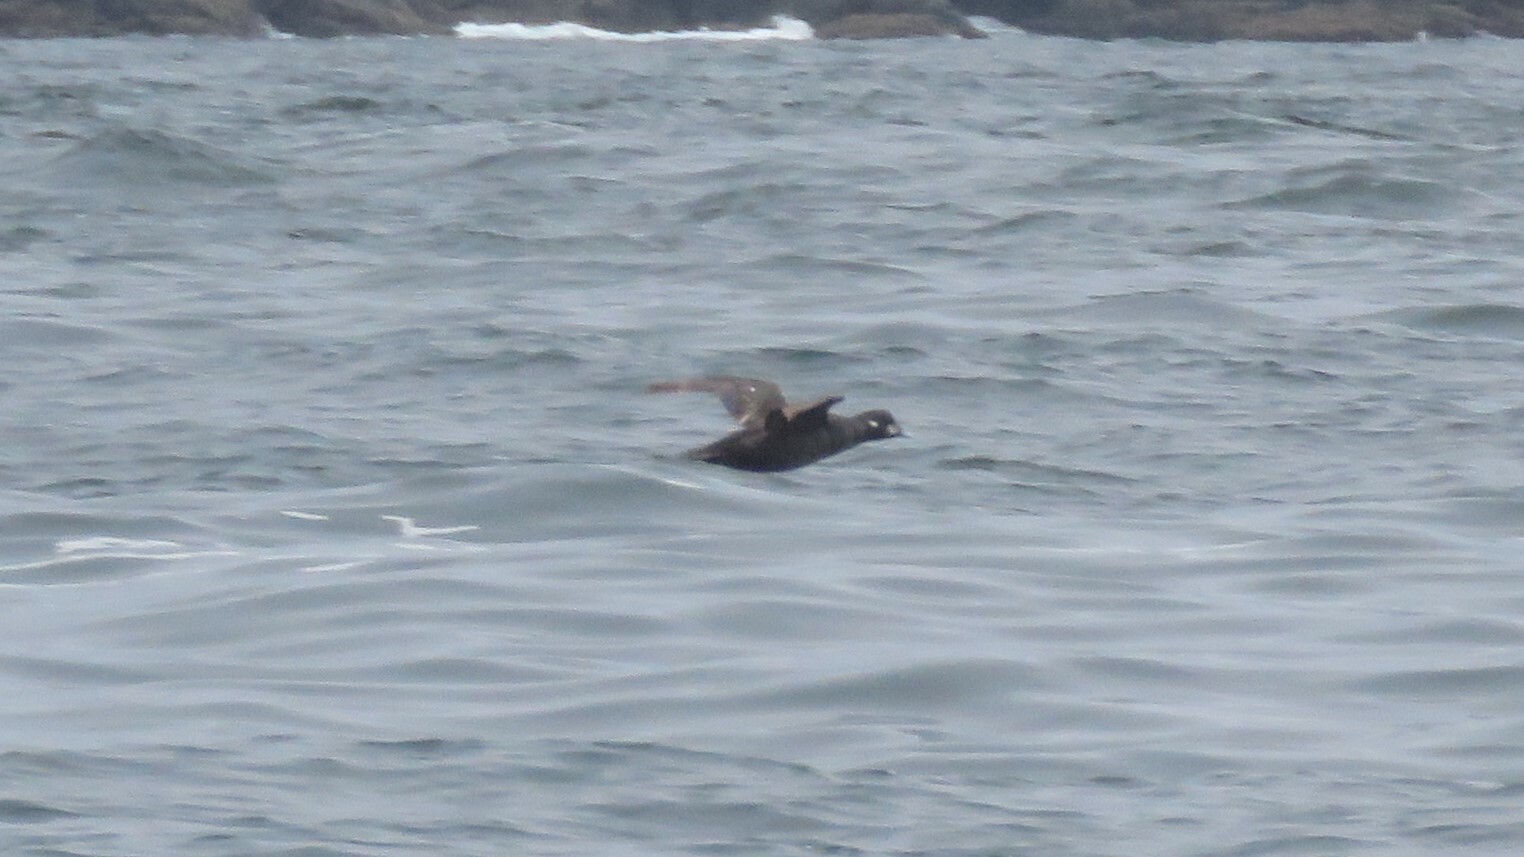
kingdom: Animalia
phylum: Chordata
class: Aves
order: Anseriformes
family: Anatidae
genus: Histrionicus
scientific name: Histrionicus histrionicus
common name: Harlequin duck
